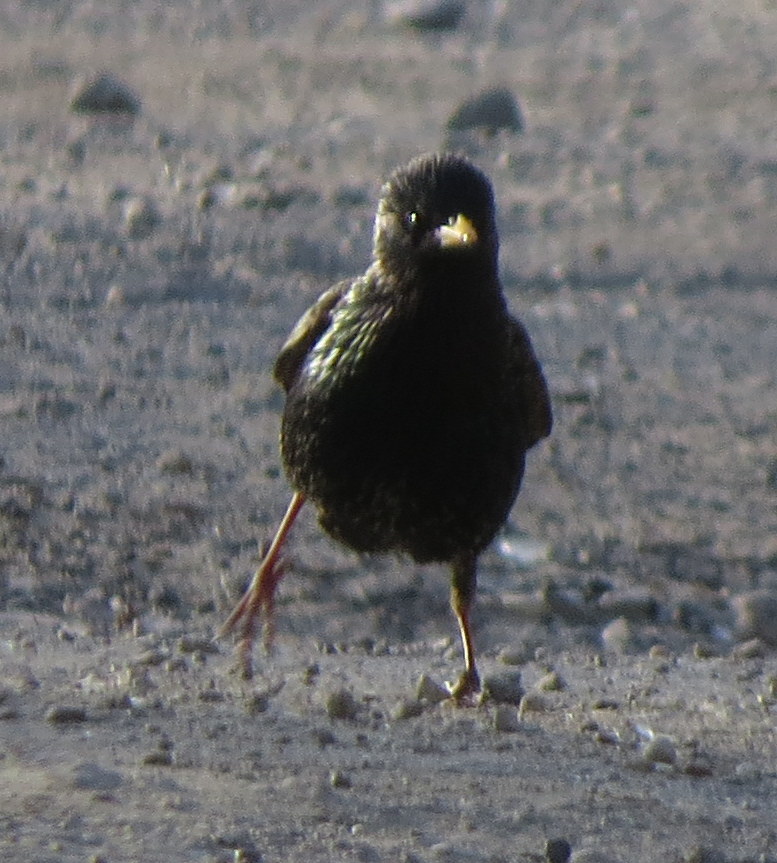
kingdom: Animalia
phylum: Chordata
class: Aves
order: Passeriformes
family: Sturnidae
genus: Sturnus
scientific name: Sturnus vulgaris
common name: Common starling
